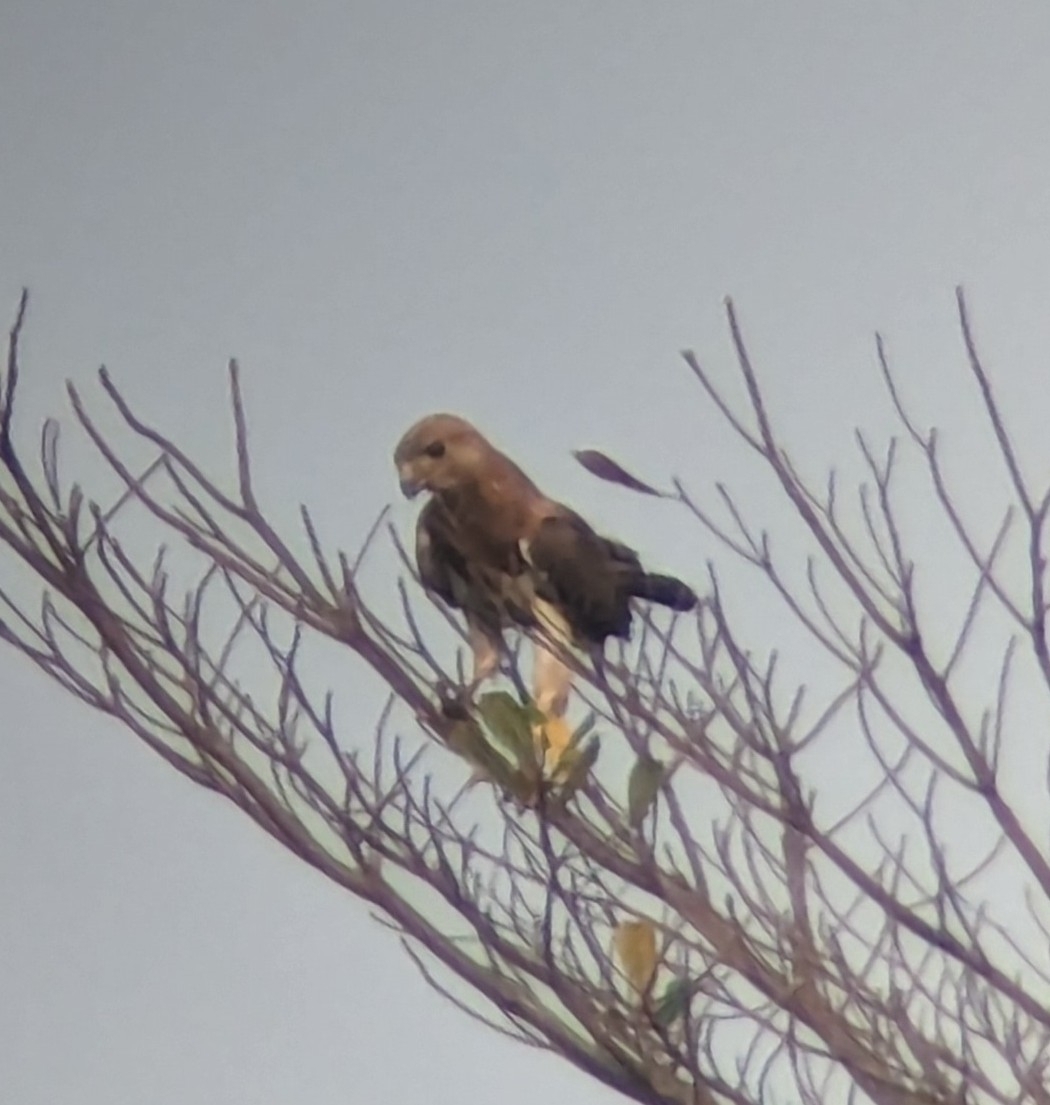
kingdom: Animalia
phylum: Chordata
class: Aves
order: Accipitriformes
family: Accipitridae
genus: Buteo
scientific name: Buteo auguralis
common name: Red-necked buzzard
